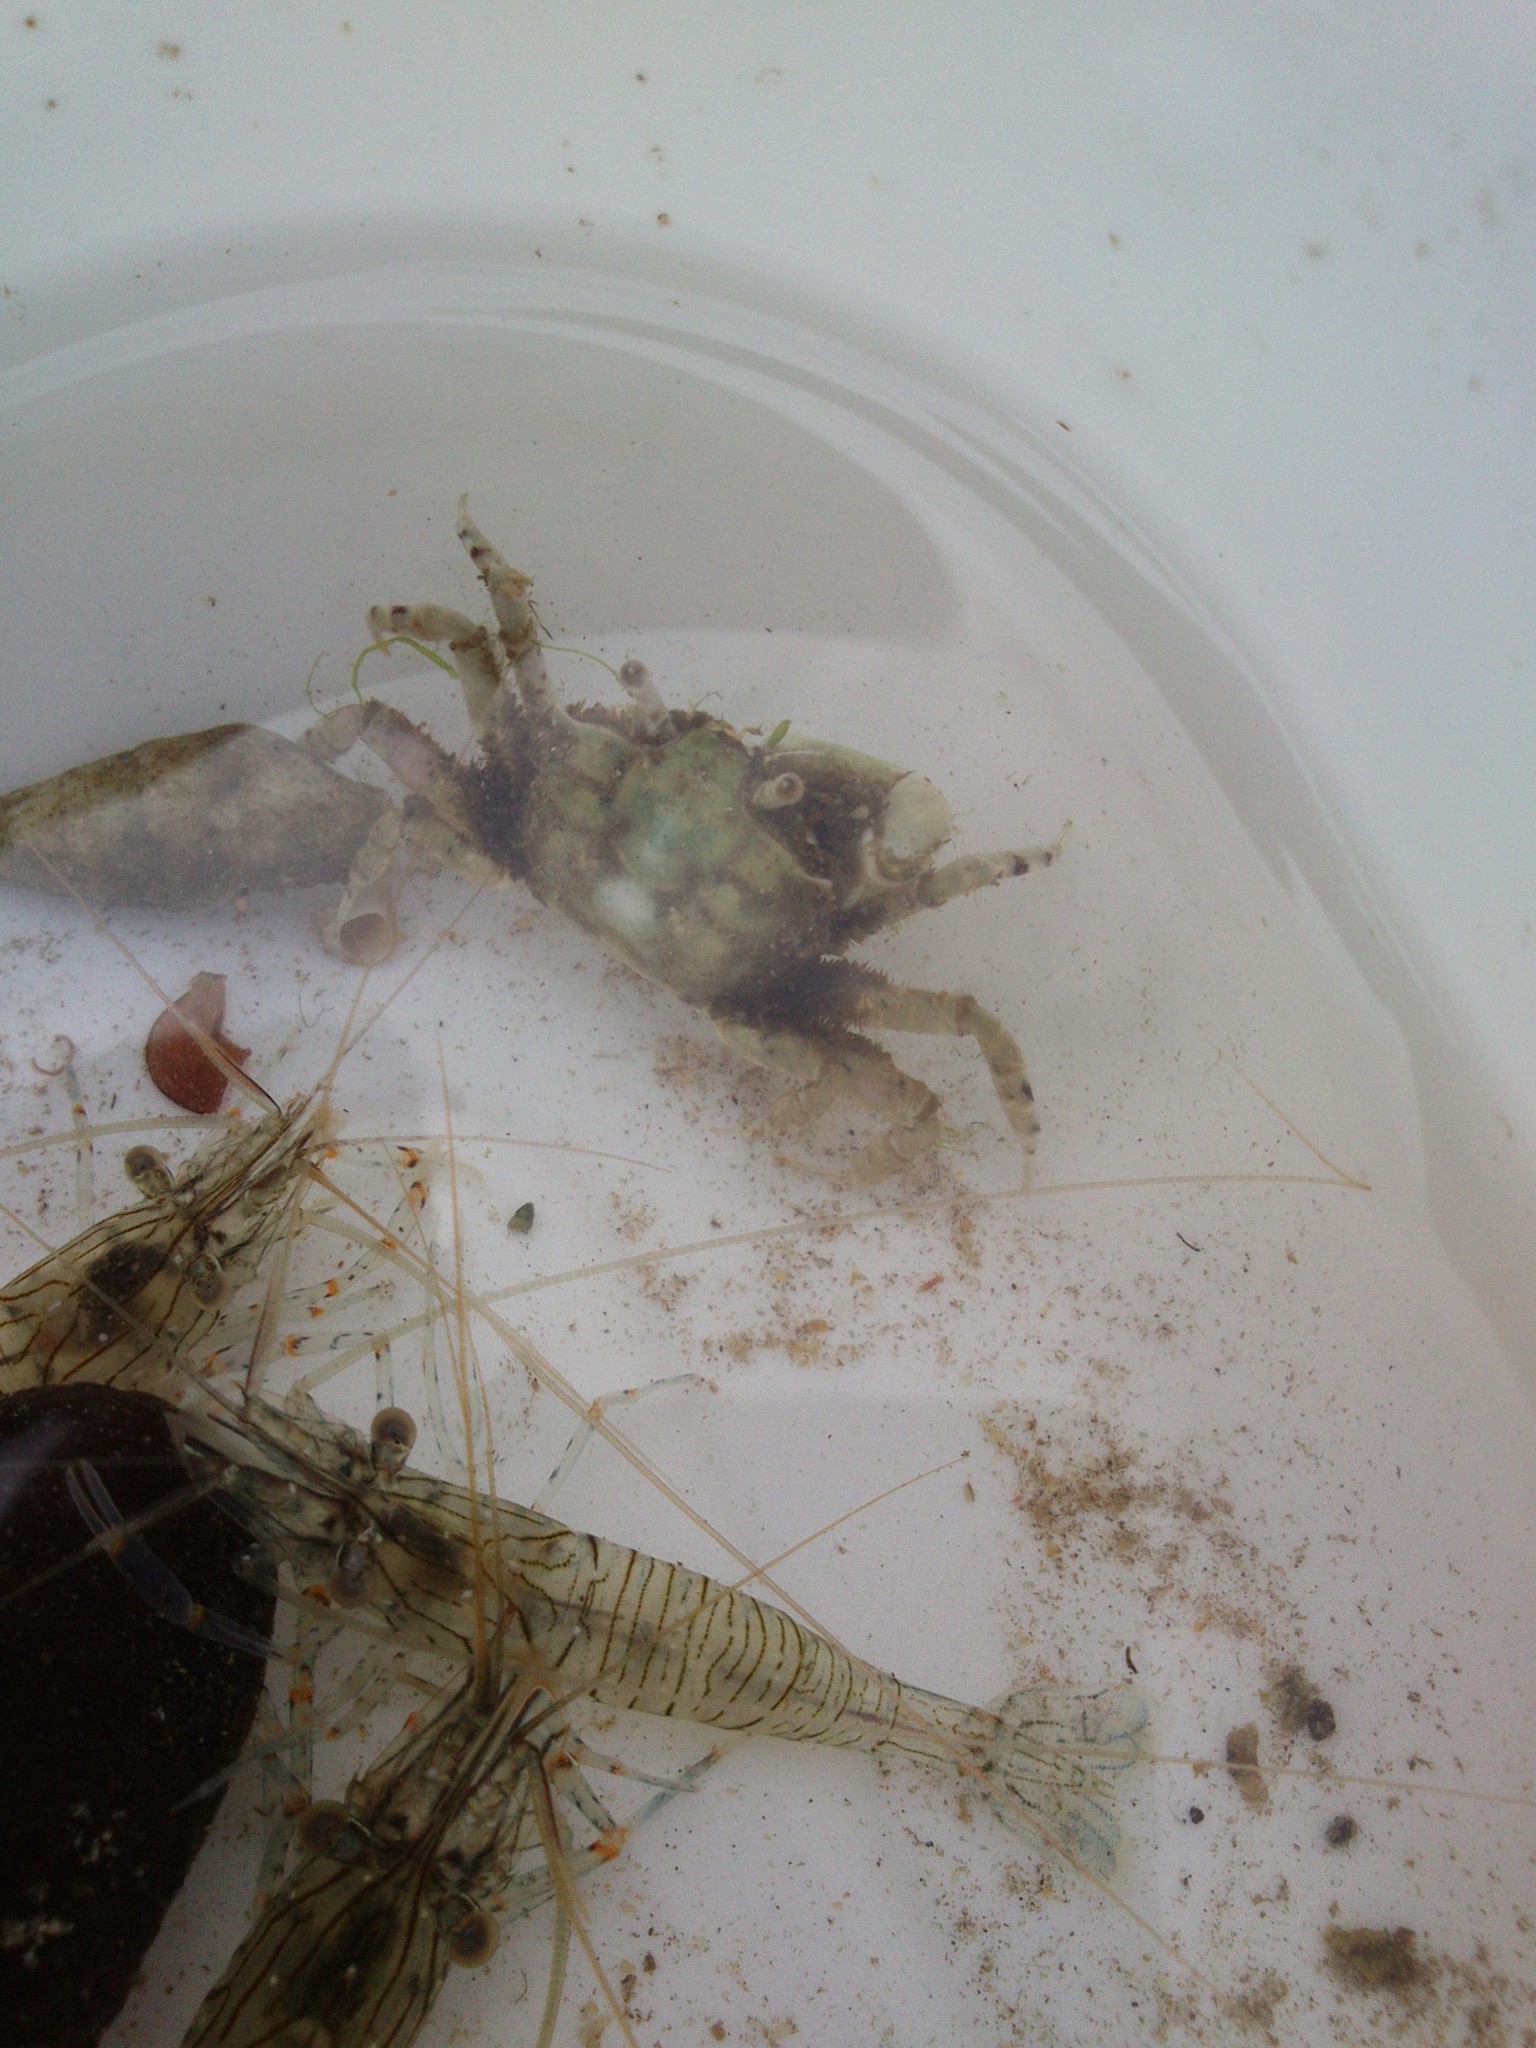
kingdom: Animalia
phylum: Arthropoda
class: Malacostraca
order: Decapoda
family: Camptandriidae
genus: Danielella
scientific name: Danielella edwardsii
